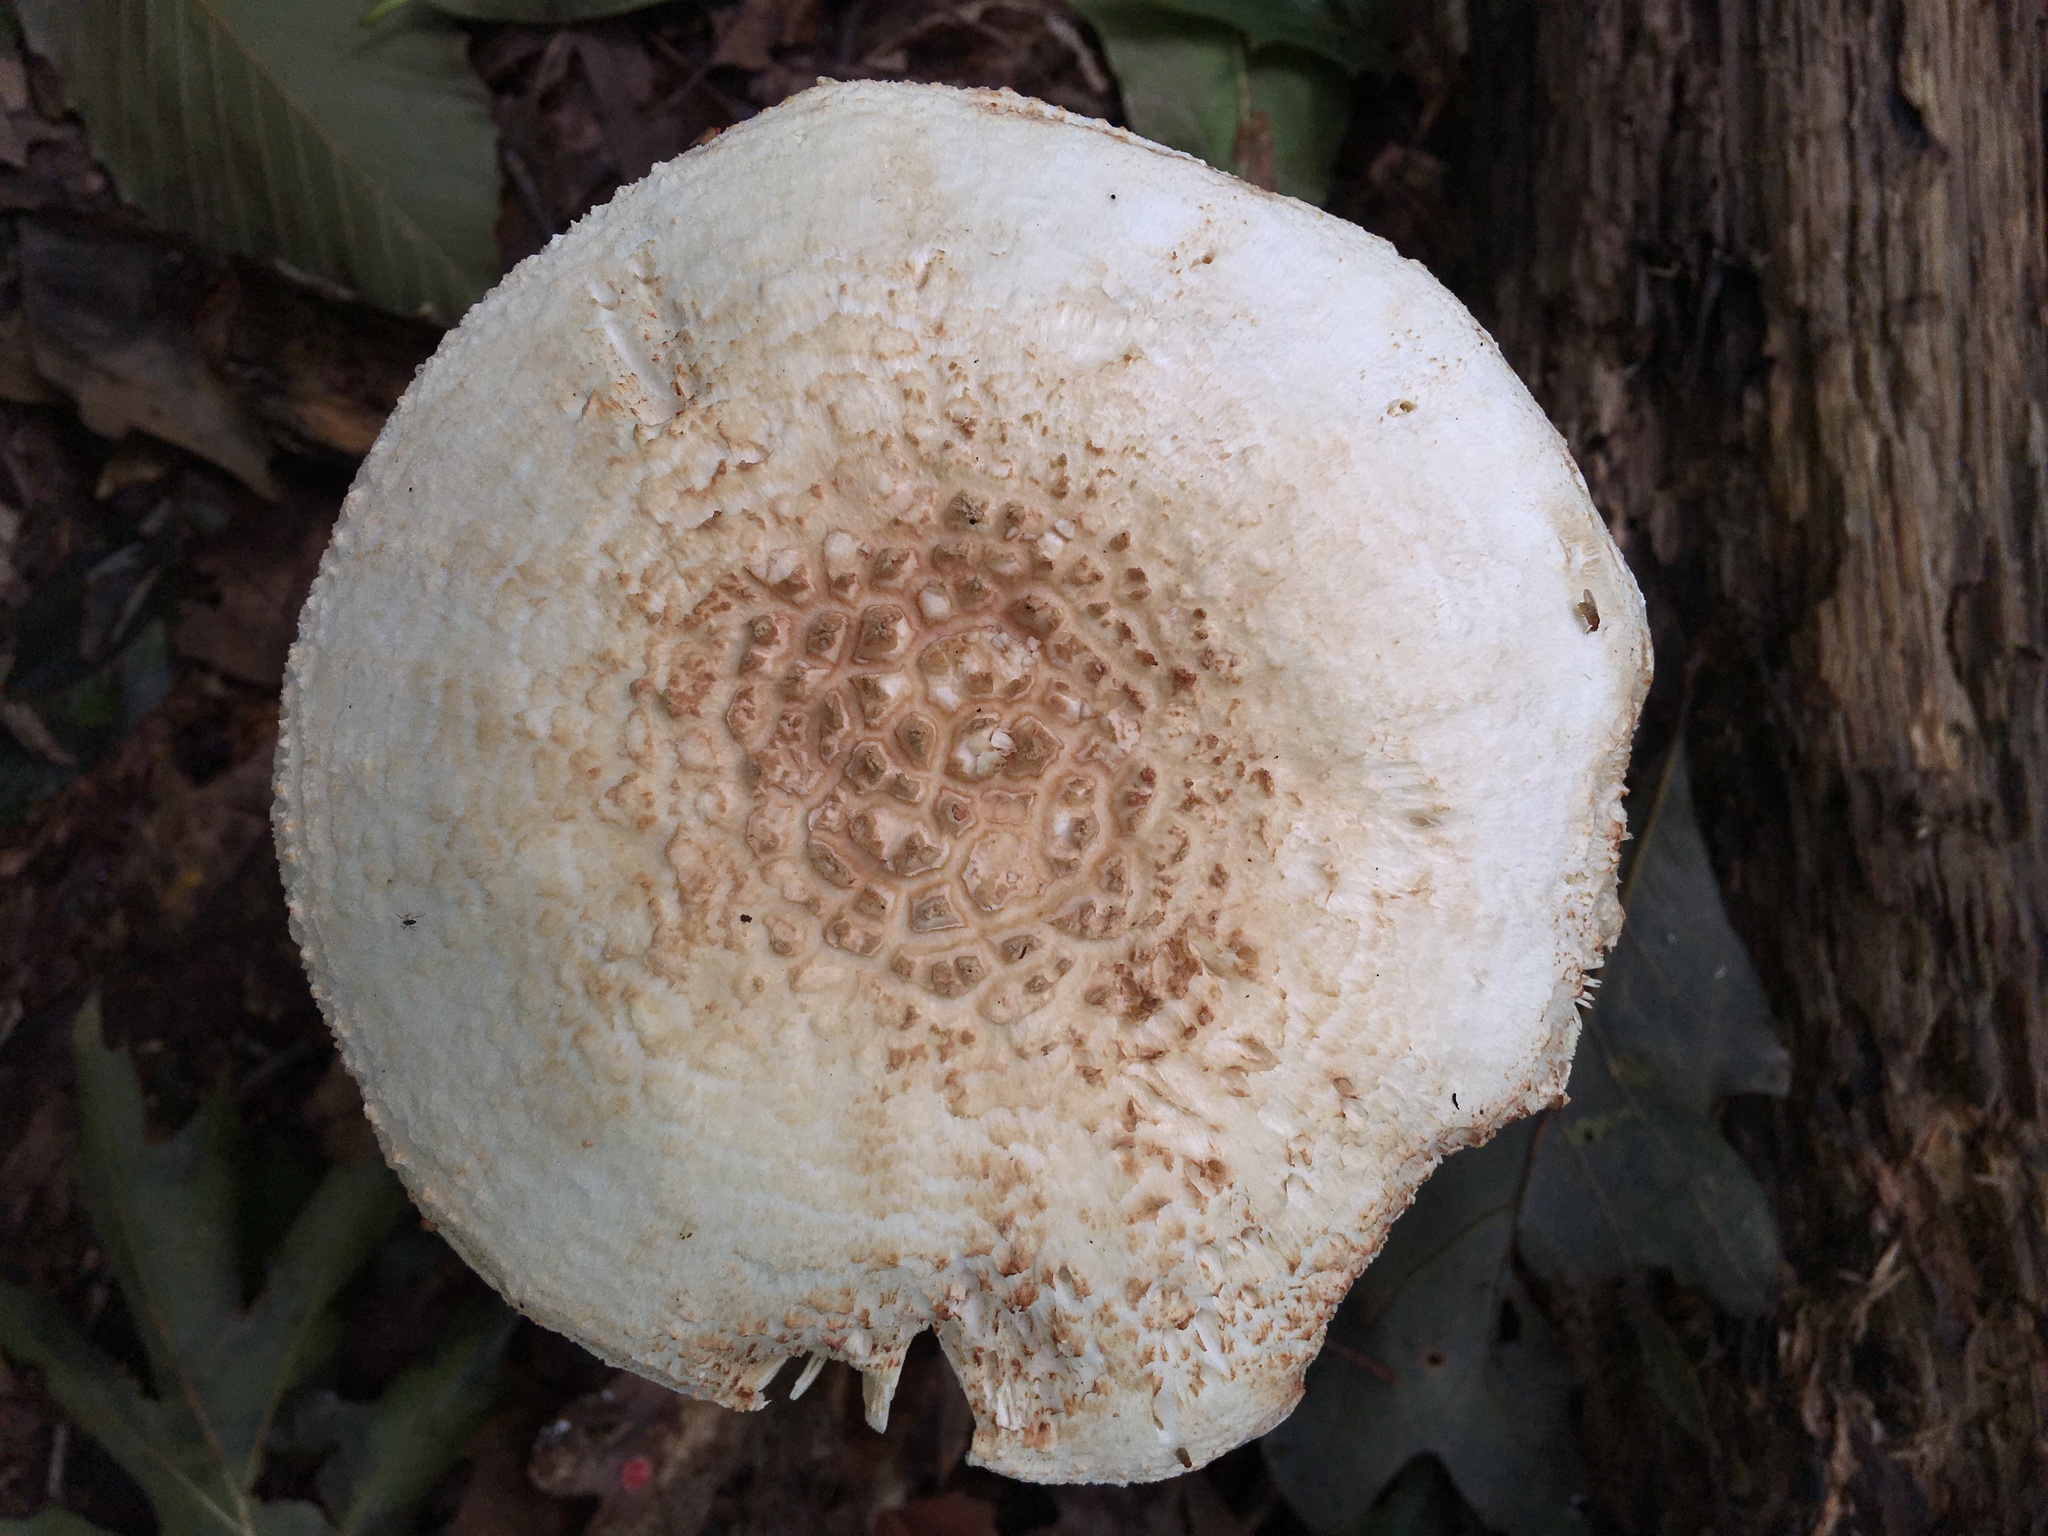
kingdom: Fungi
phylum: Basidiomycota
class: Agaricomycetes
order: Agaricales
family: Amanitaceae
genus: Amanita
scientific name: Amanita rhopalopus
